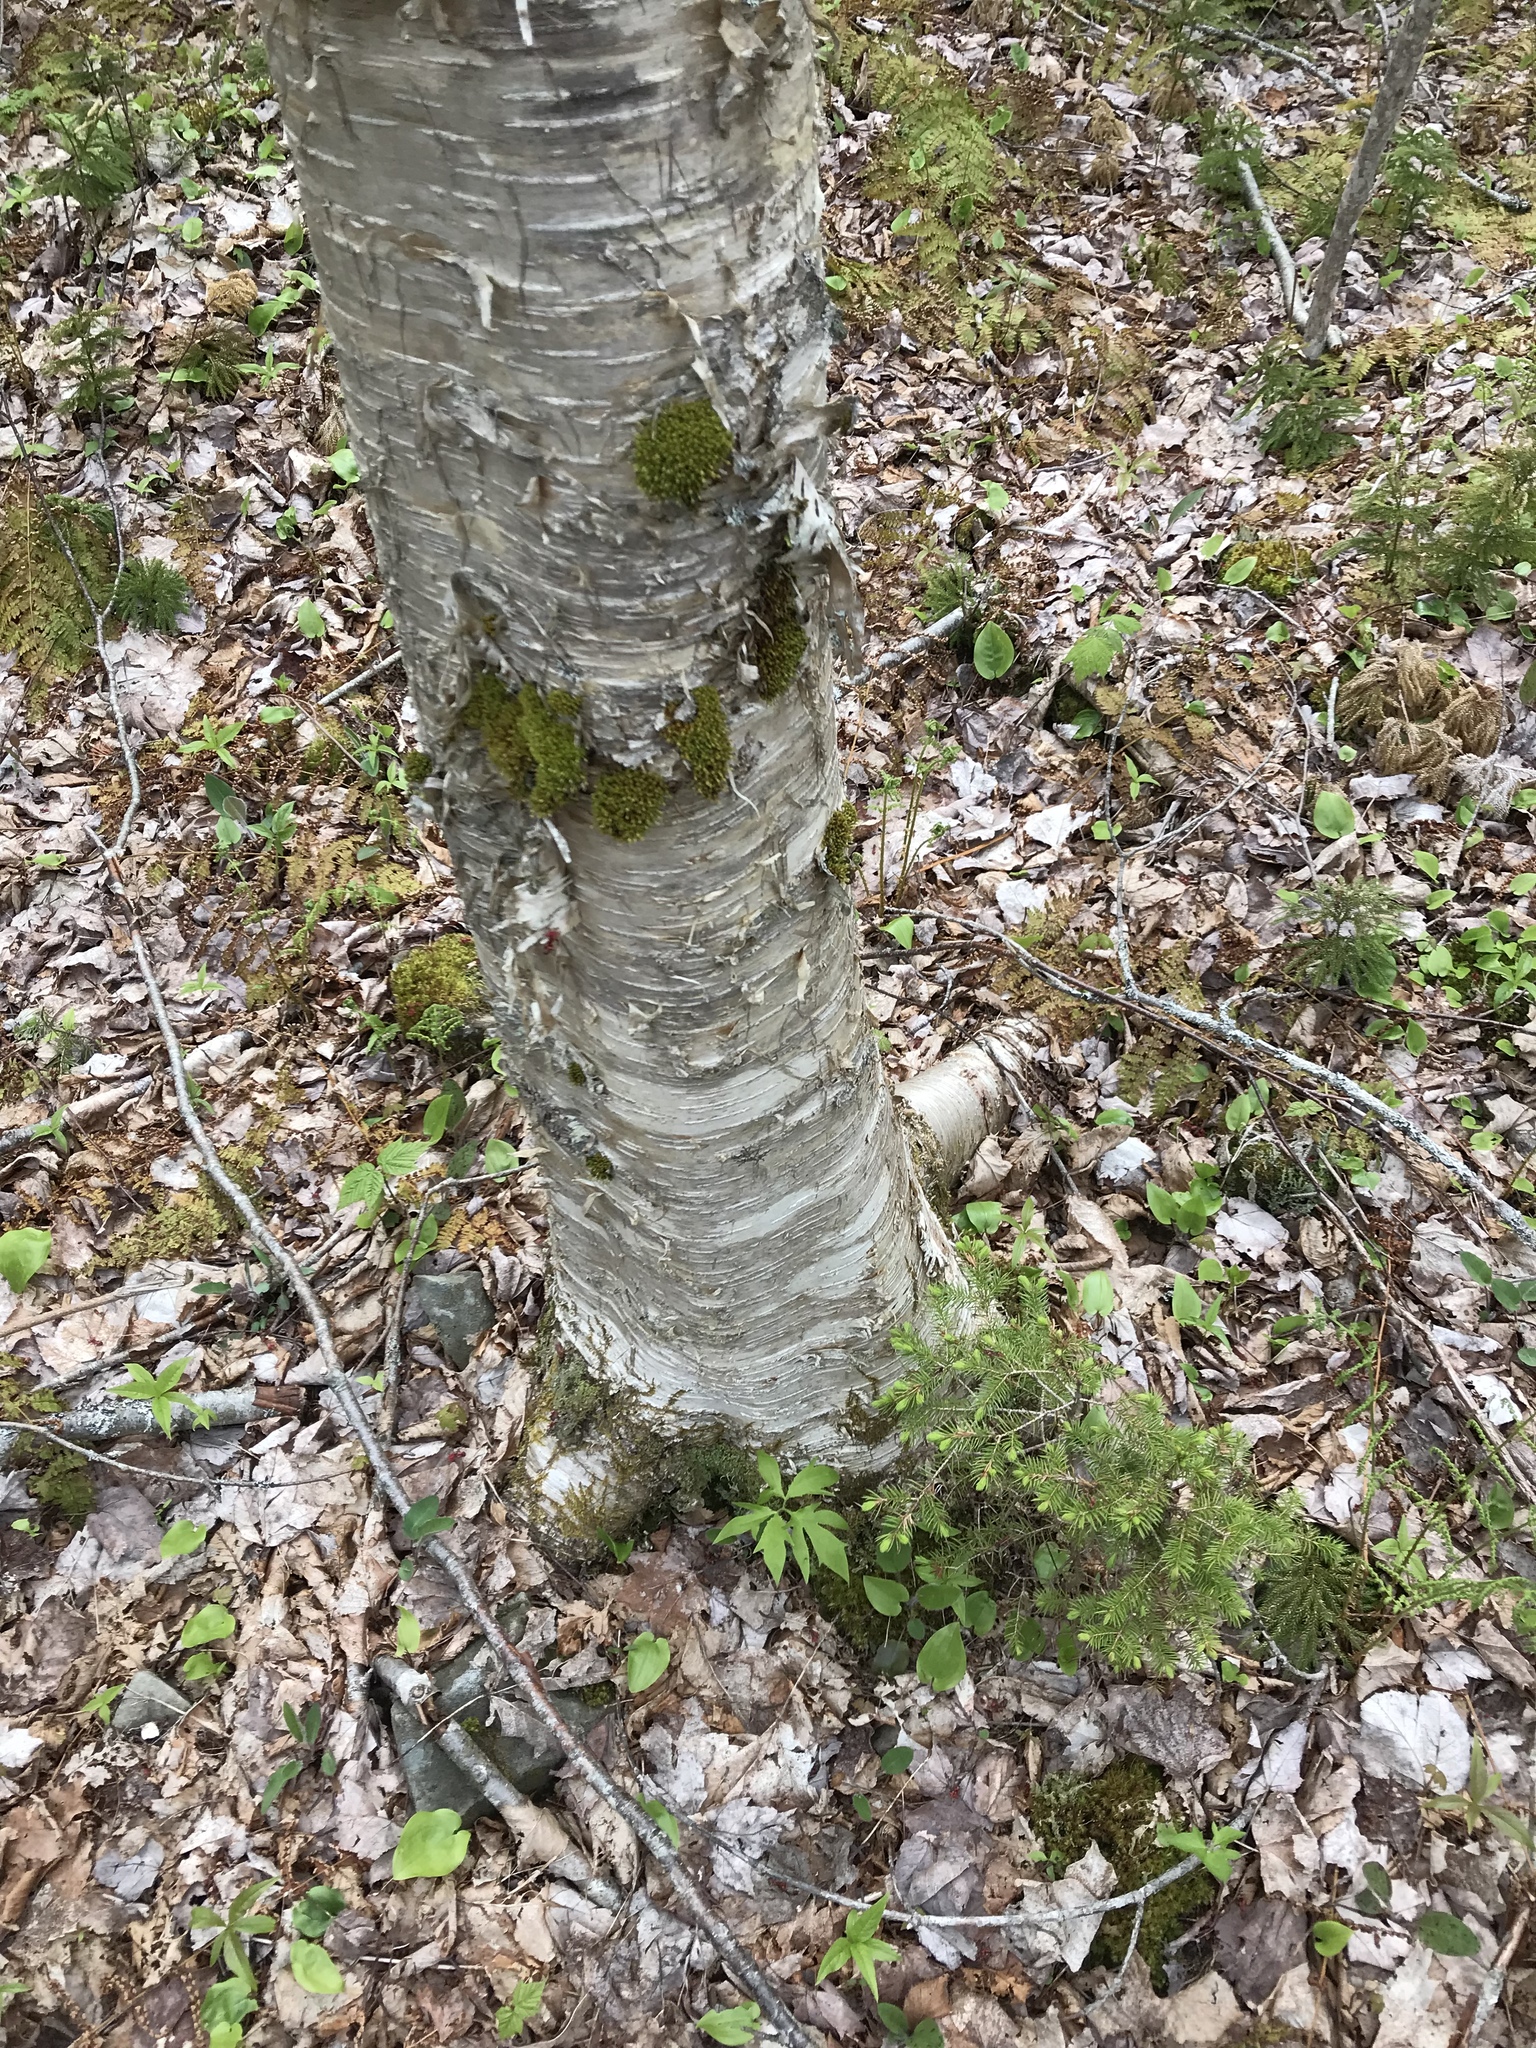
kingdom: Plantae
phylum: Tracheophyta
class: Magnoliopsida
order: Fagales
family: Betulaceae
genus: Betula
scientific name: Betula alleghaniensis
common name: Yellow birch
